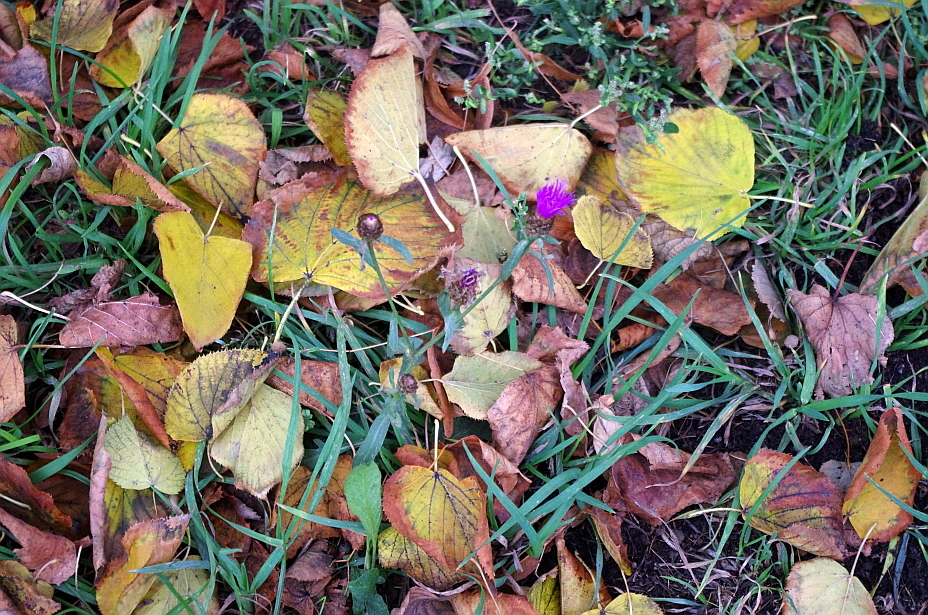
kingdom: Plantae
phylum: Tracheophyta
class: Magnoliopsida
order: Asterales
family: Asteraceae
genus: Centaurea
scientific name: Centaurea jacea
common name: Brown knapweed
